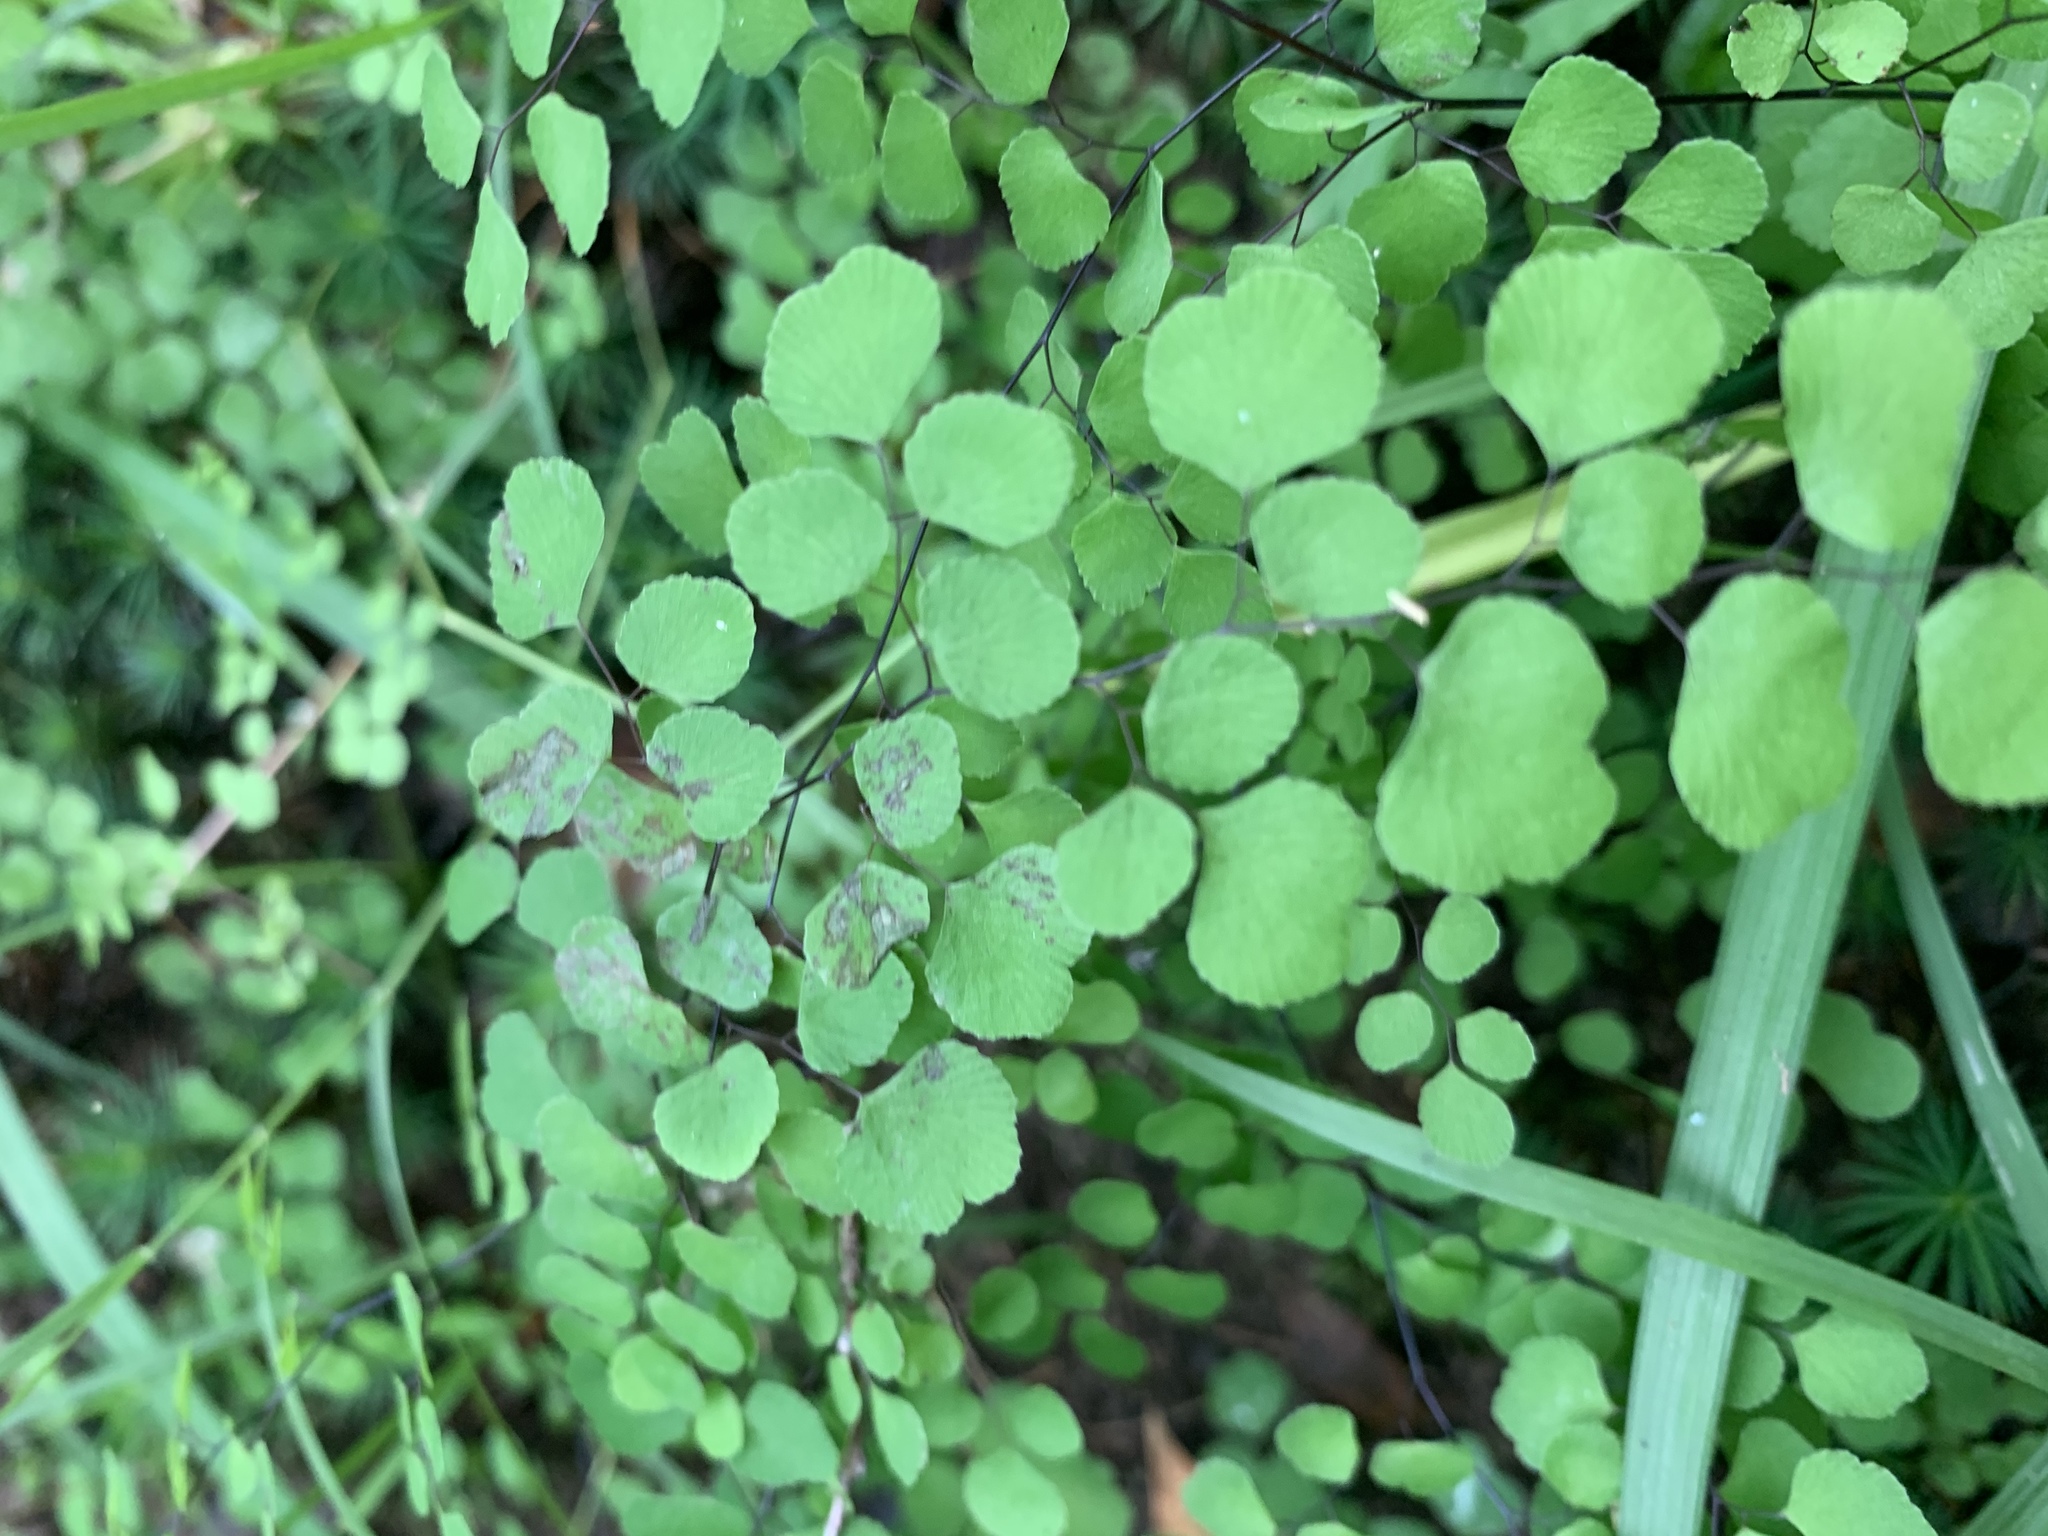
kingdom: Plantae
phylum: Tracheophyta
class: Polypodiopsida
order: Polypodiales
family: Pteridaceae
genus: Adiantum
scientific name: Adiantum aethiopicum
